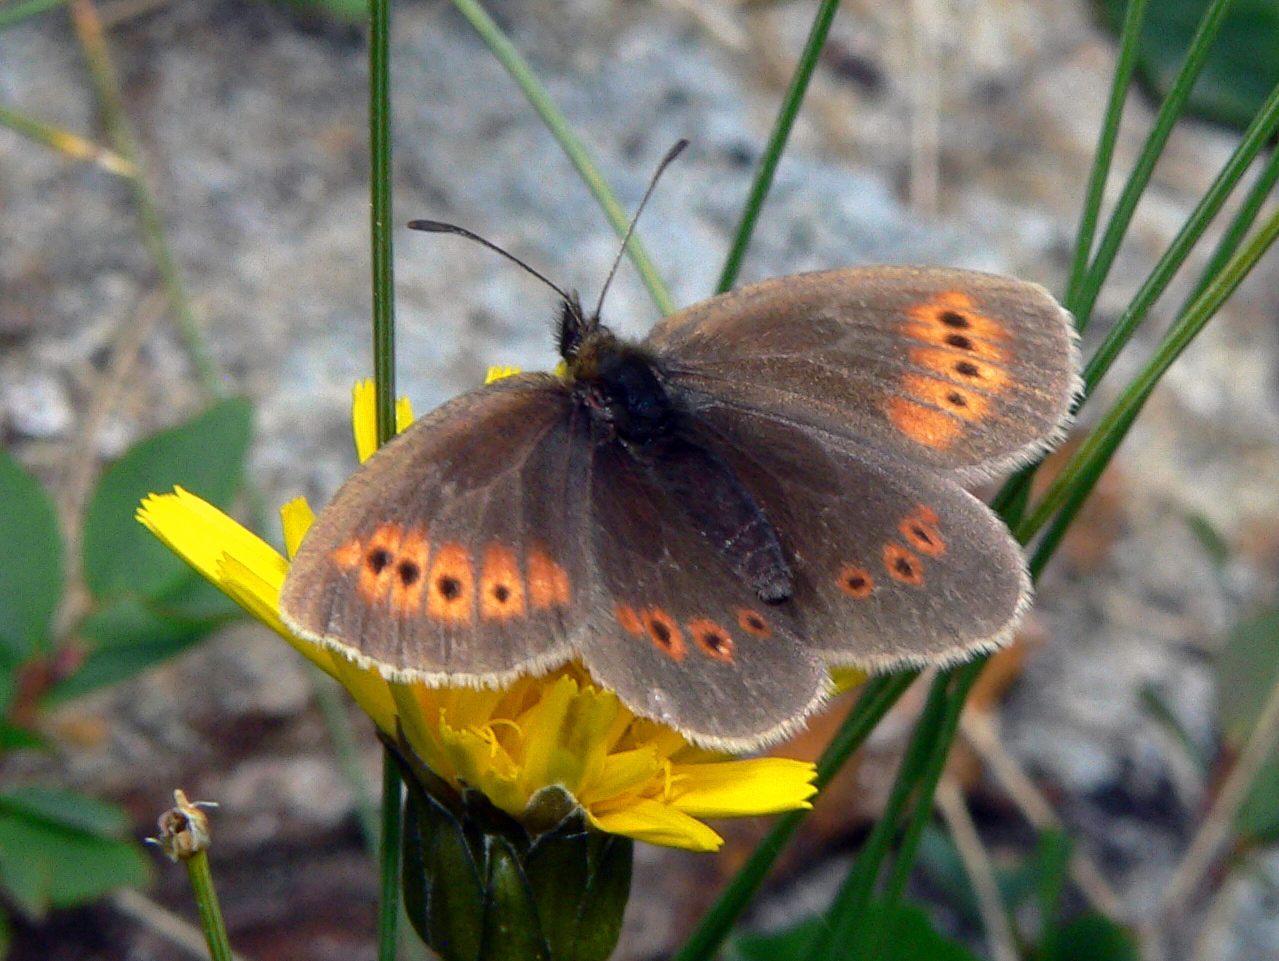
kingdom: Animalia
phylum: Arthropoda
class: Insecta
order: Lepidoptera
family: Nymphalidae
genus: Erebia
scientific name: Erebia melampus
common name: Lesser mountain ringlet
